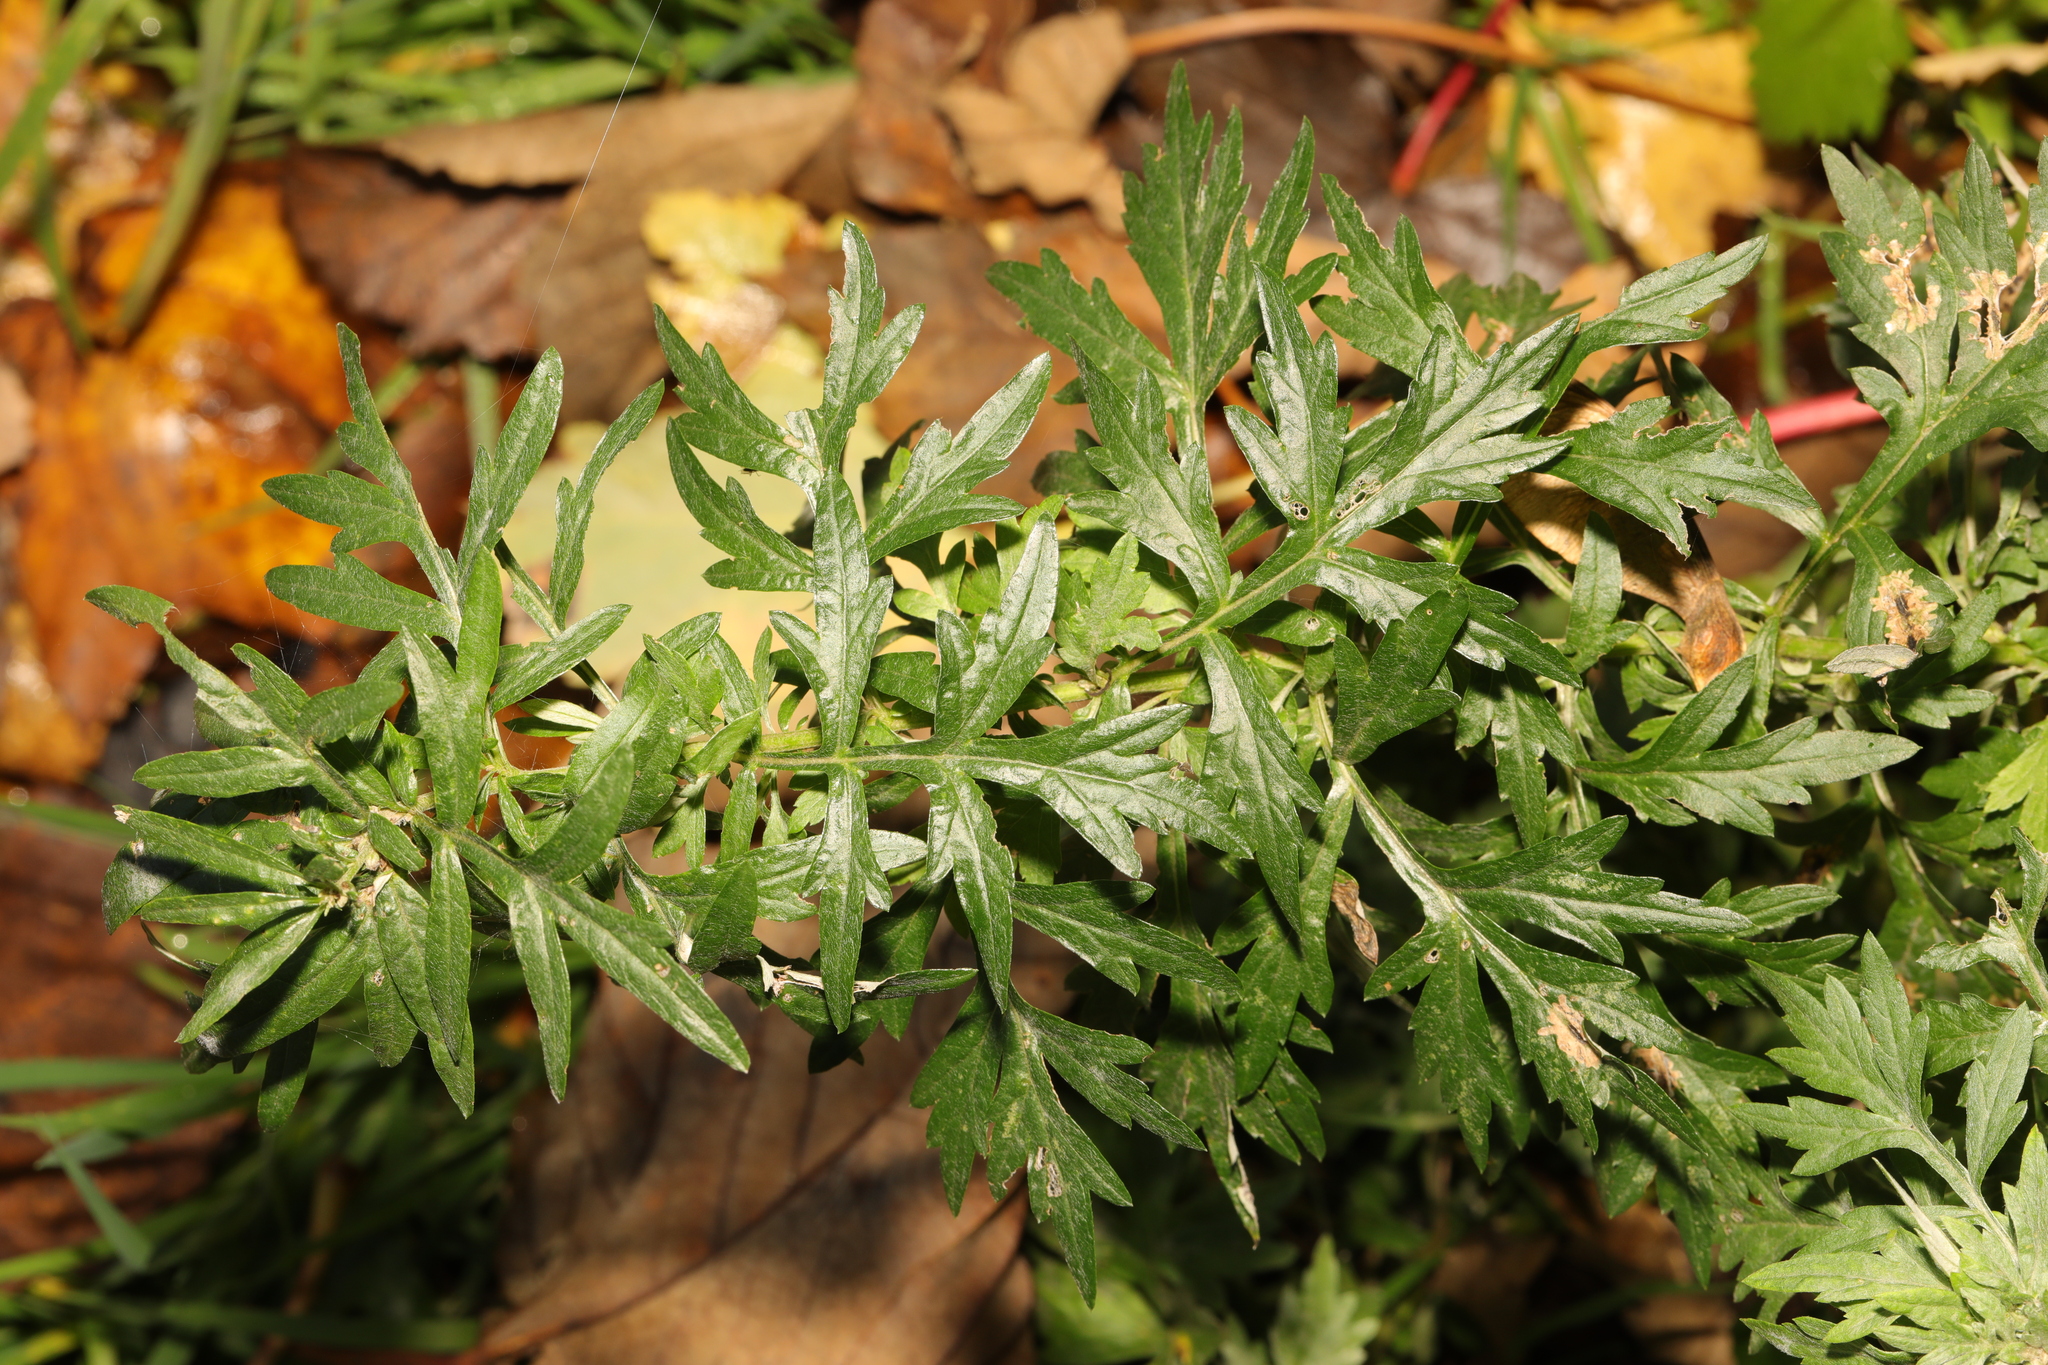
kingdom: Plantae
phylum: Tracheophyta
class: Magnoliopsida
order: Asterales
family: Asteraceae
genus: Artemisia
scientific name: Artemisia vulgaris
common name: Mugwort
